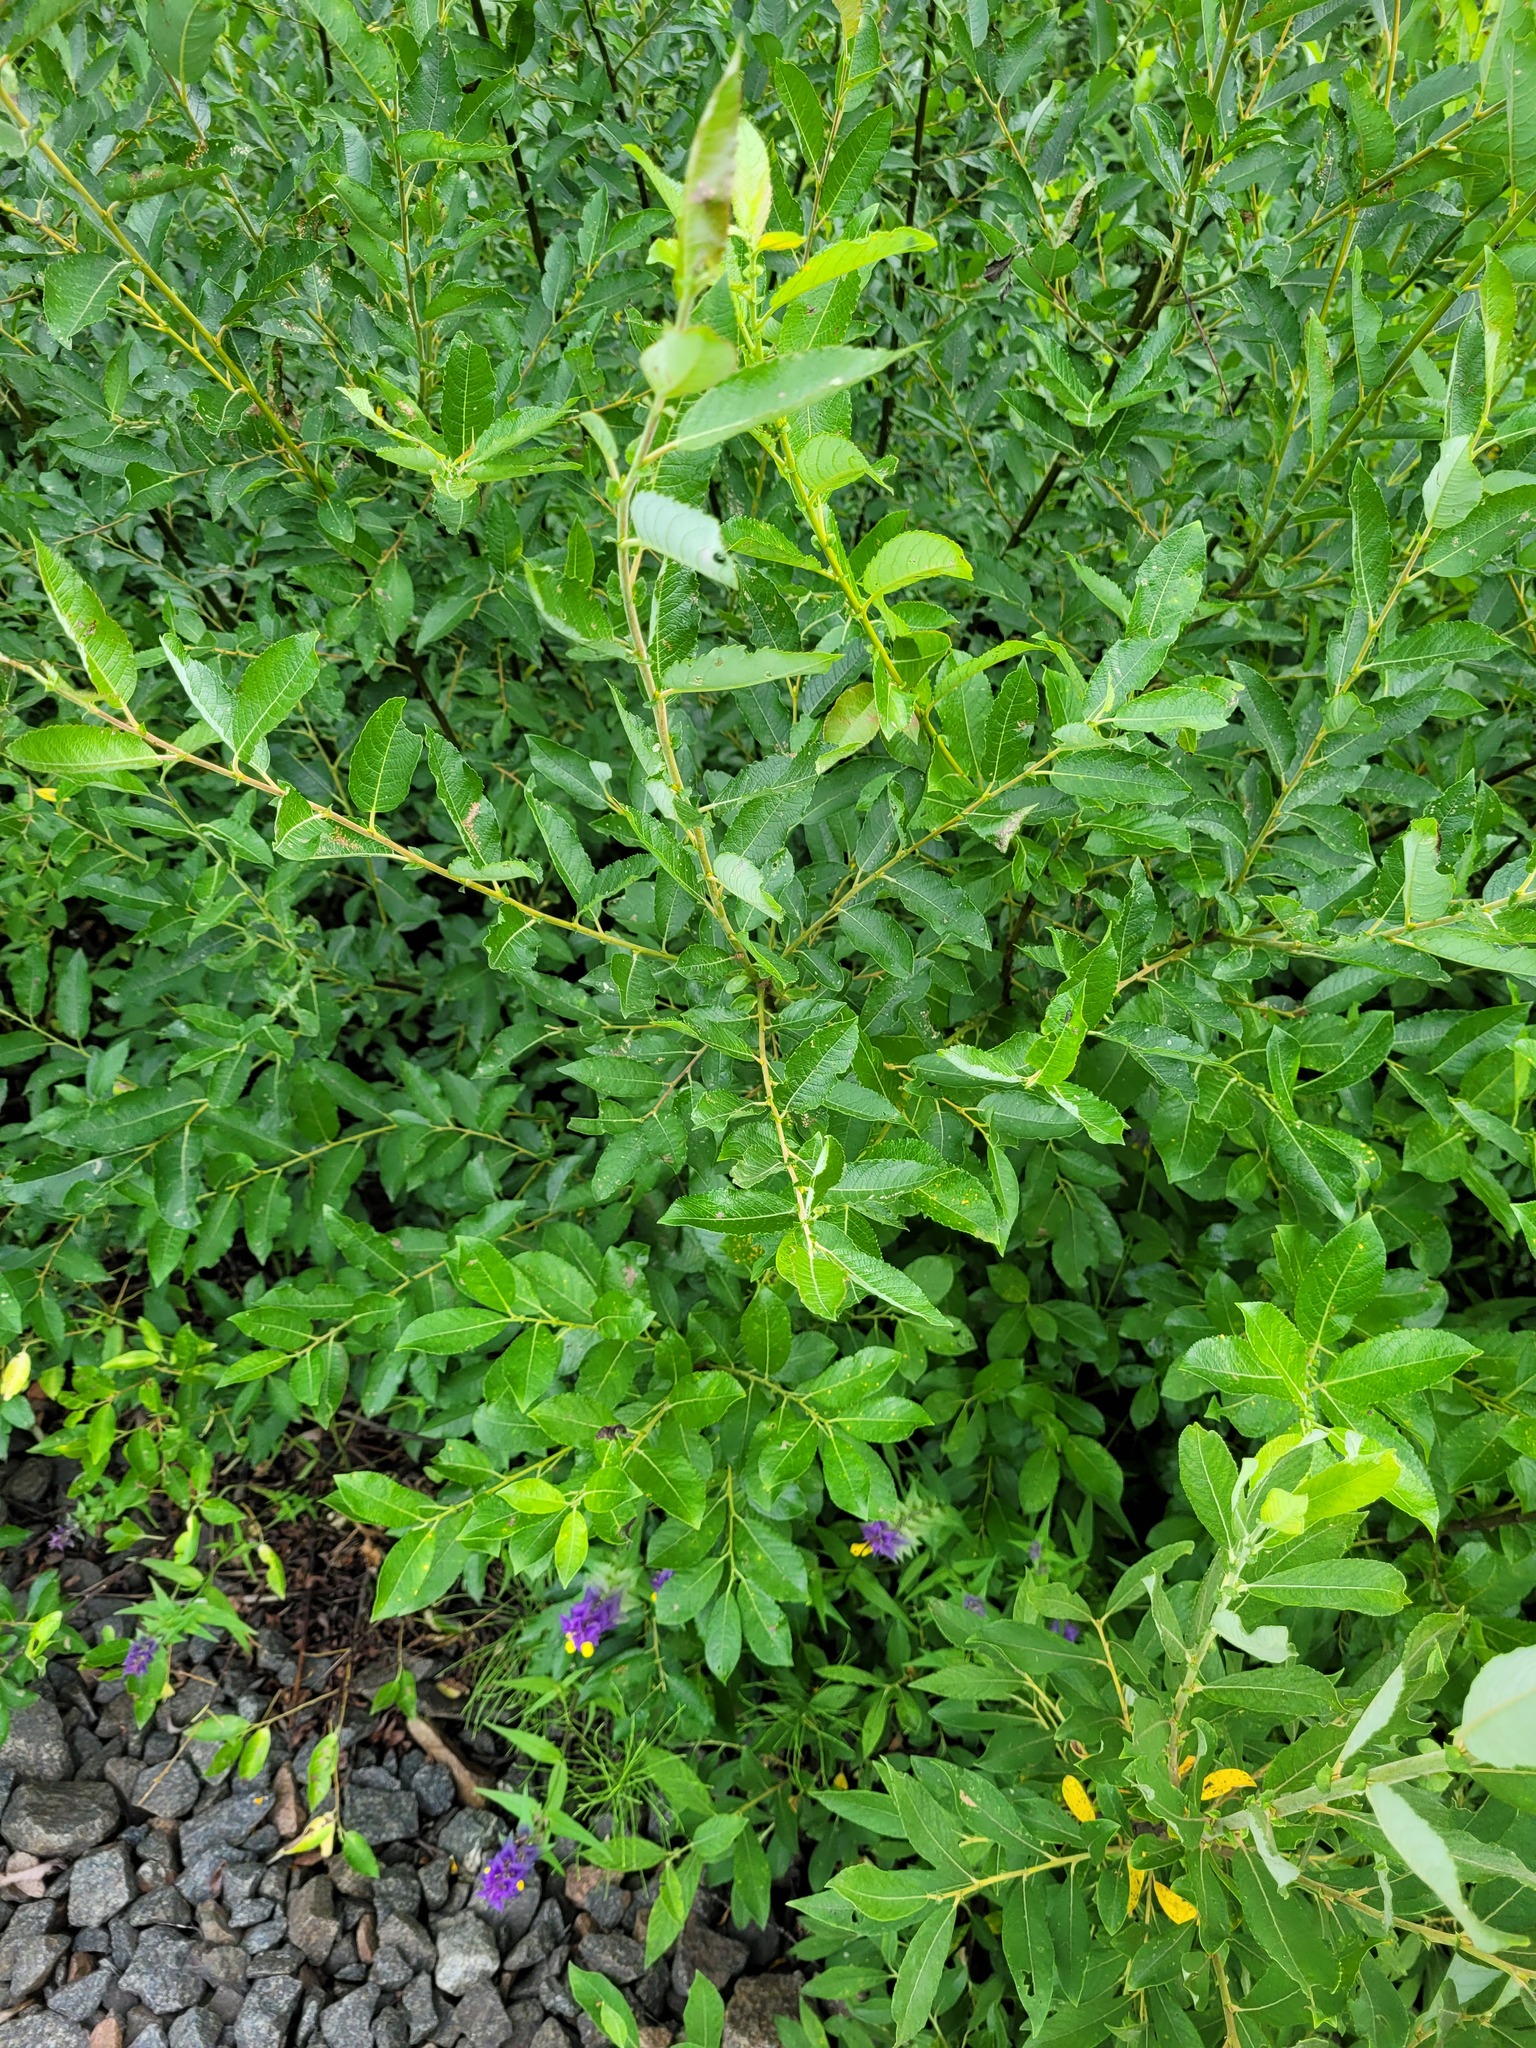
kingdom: Plantae
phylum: Tracheophyta
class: Magnoliopsida
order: Malpighiales
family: Salicaceae
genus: Salix
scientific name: Salix myrsinifolia
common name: Dark-leaved willow
